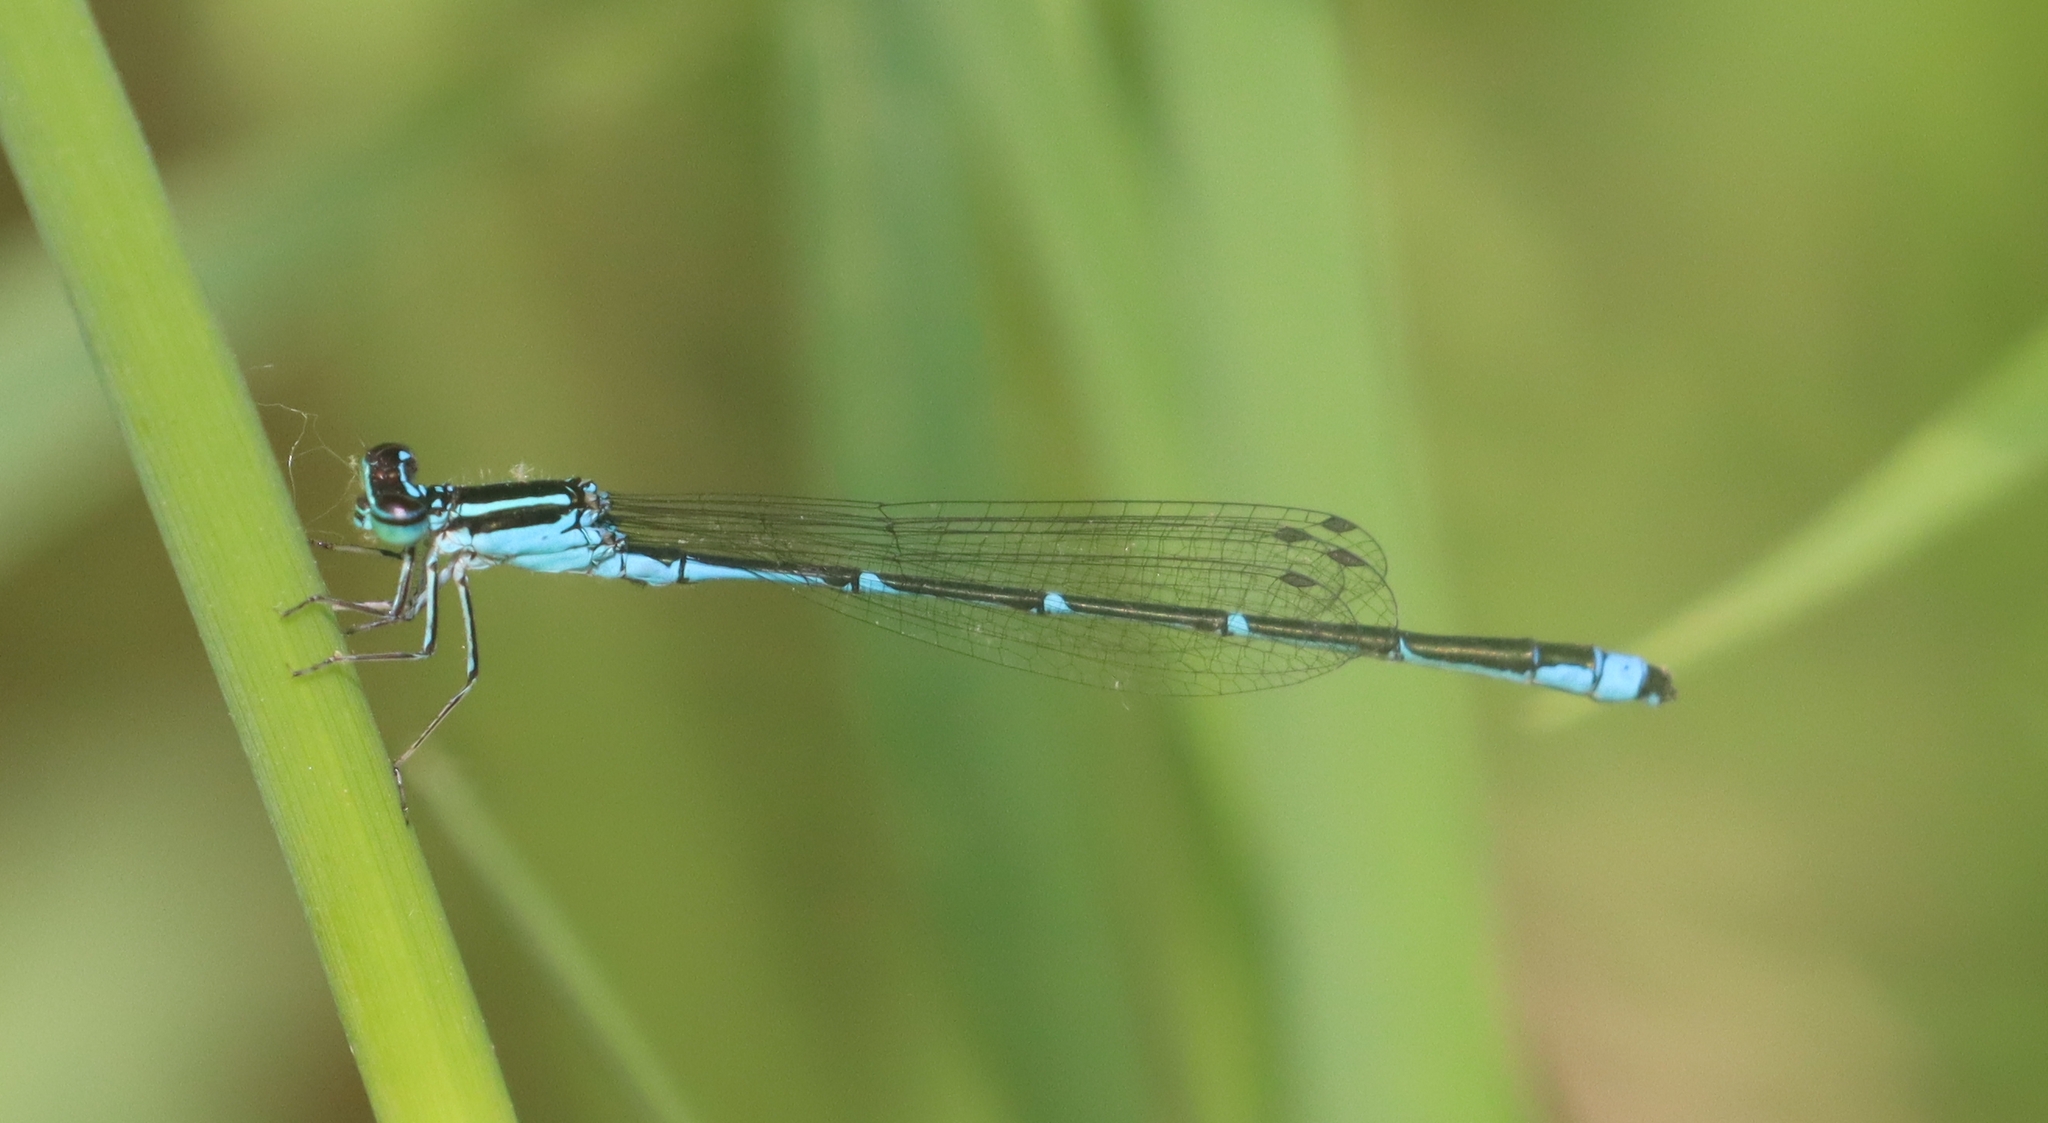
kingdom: Animalia
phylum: Arthropoda
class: Insecta
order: Odonata
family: Coenagrionidae
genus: Enallagma
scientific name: Enallagma exsulans
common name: Stream bluet
